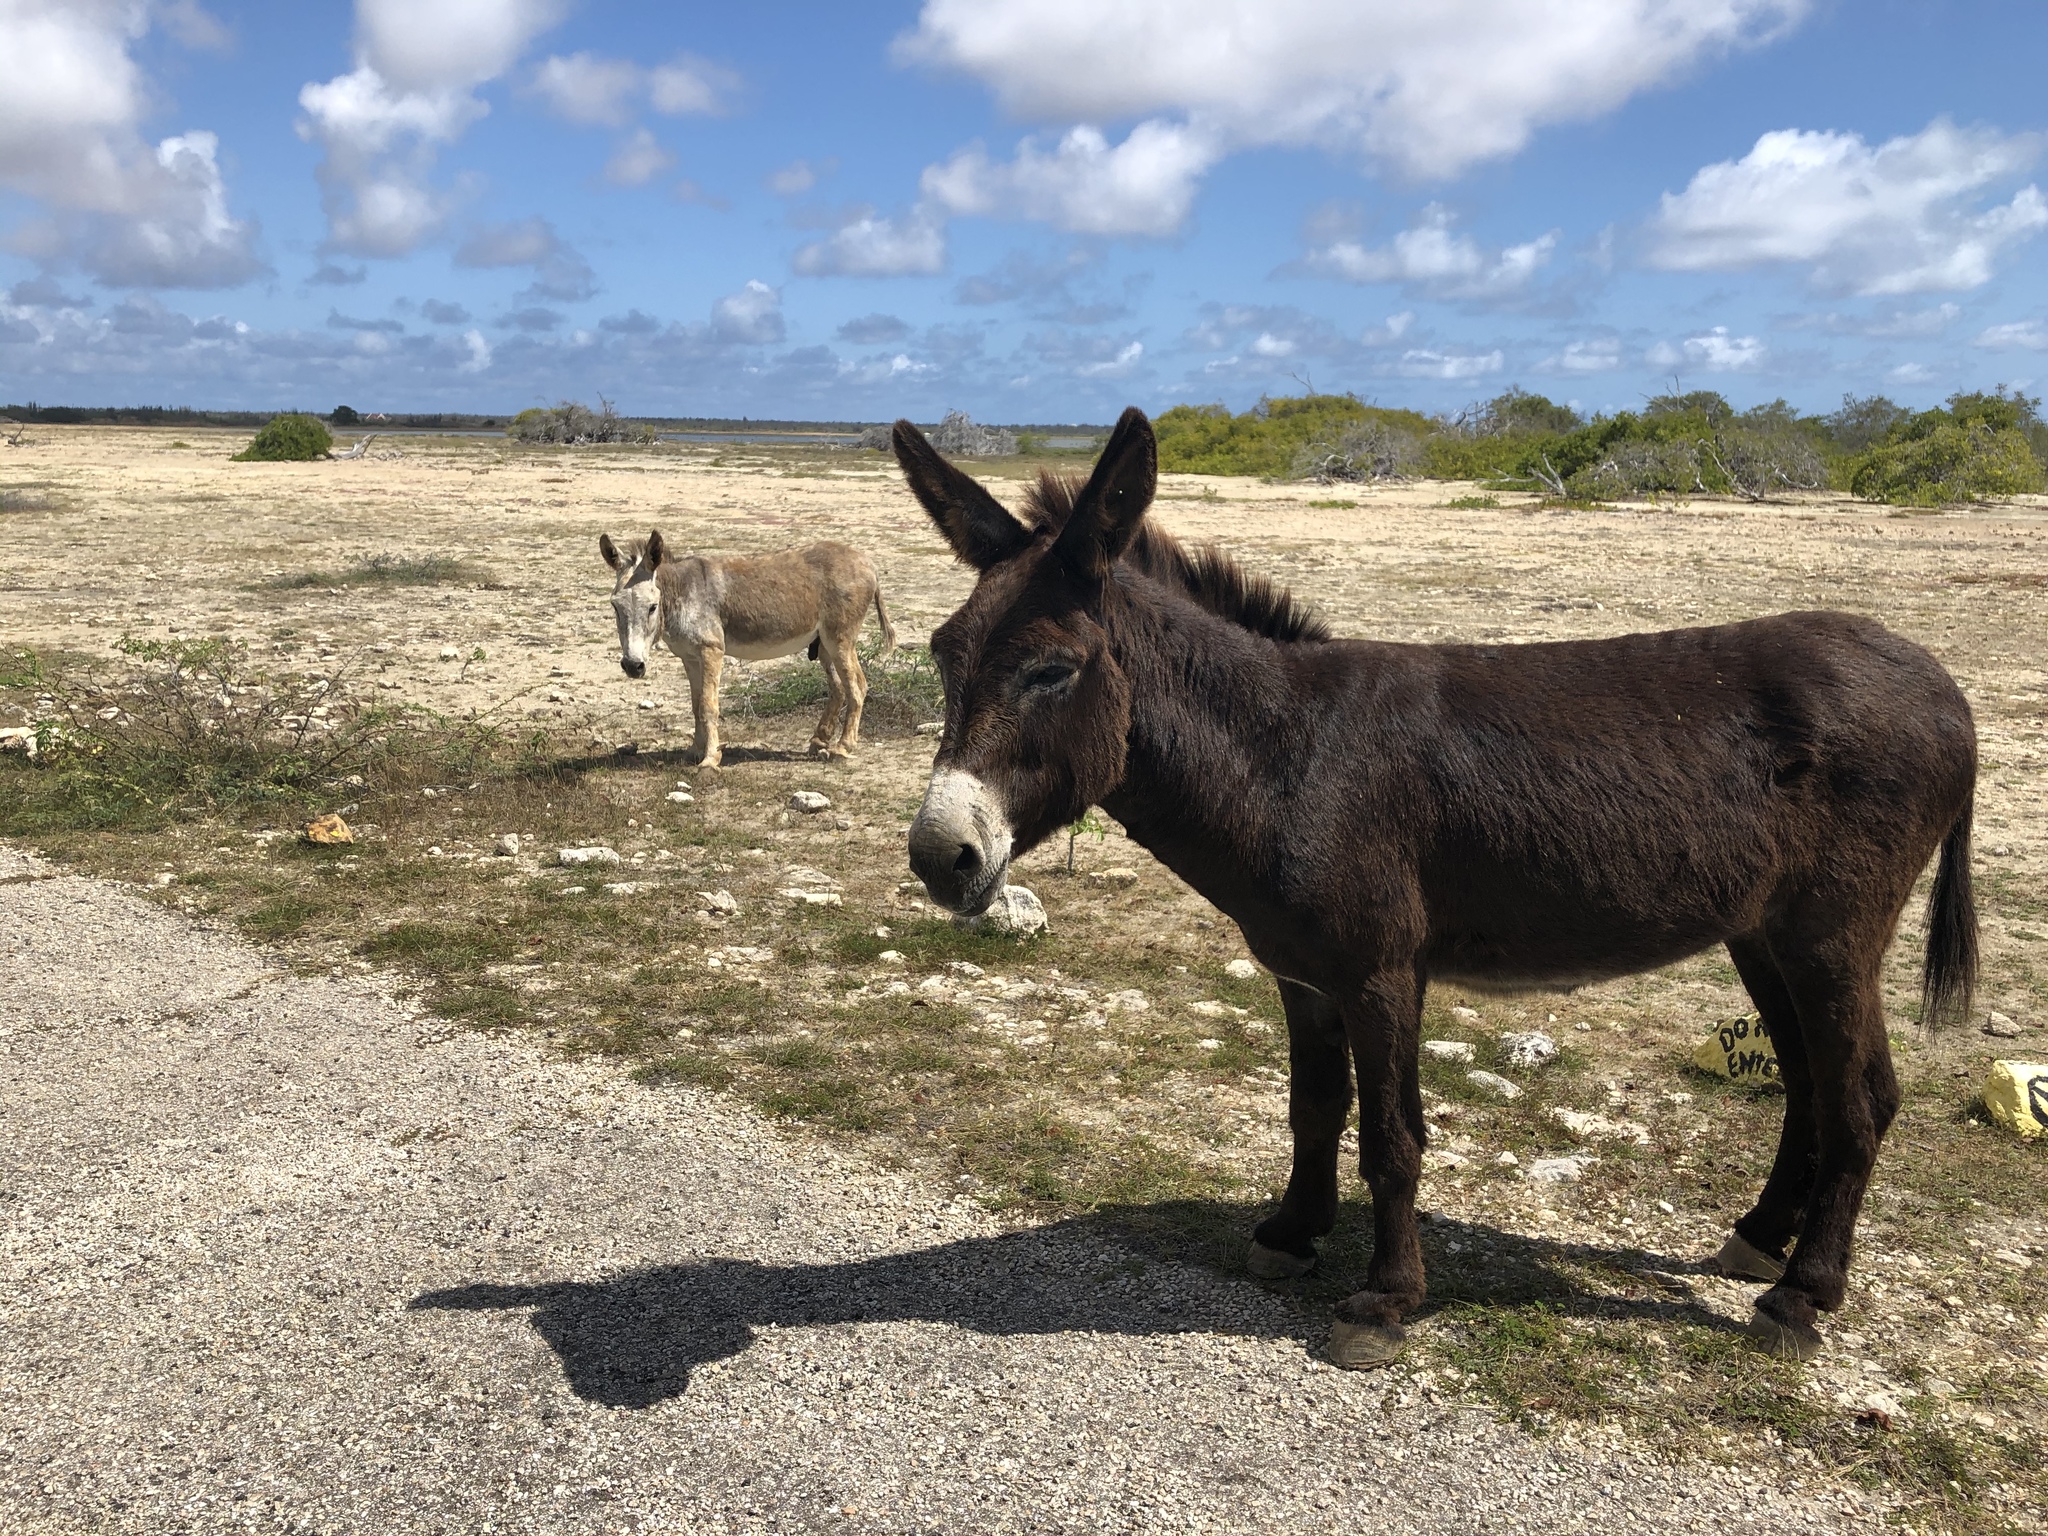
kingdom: Animalia
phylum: Chordata
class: Mammalia
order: Perissodactyla
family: Equidae
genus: Equus
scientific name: Equus asinus
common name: Ass
